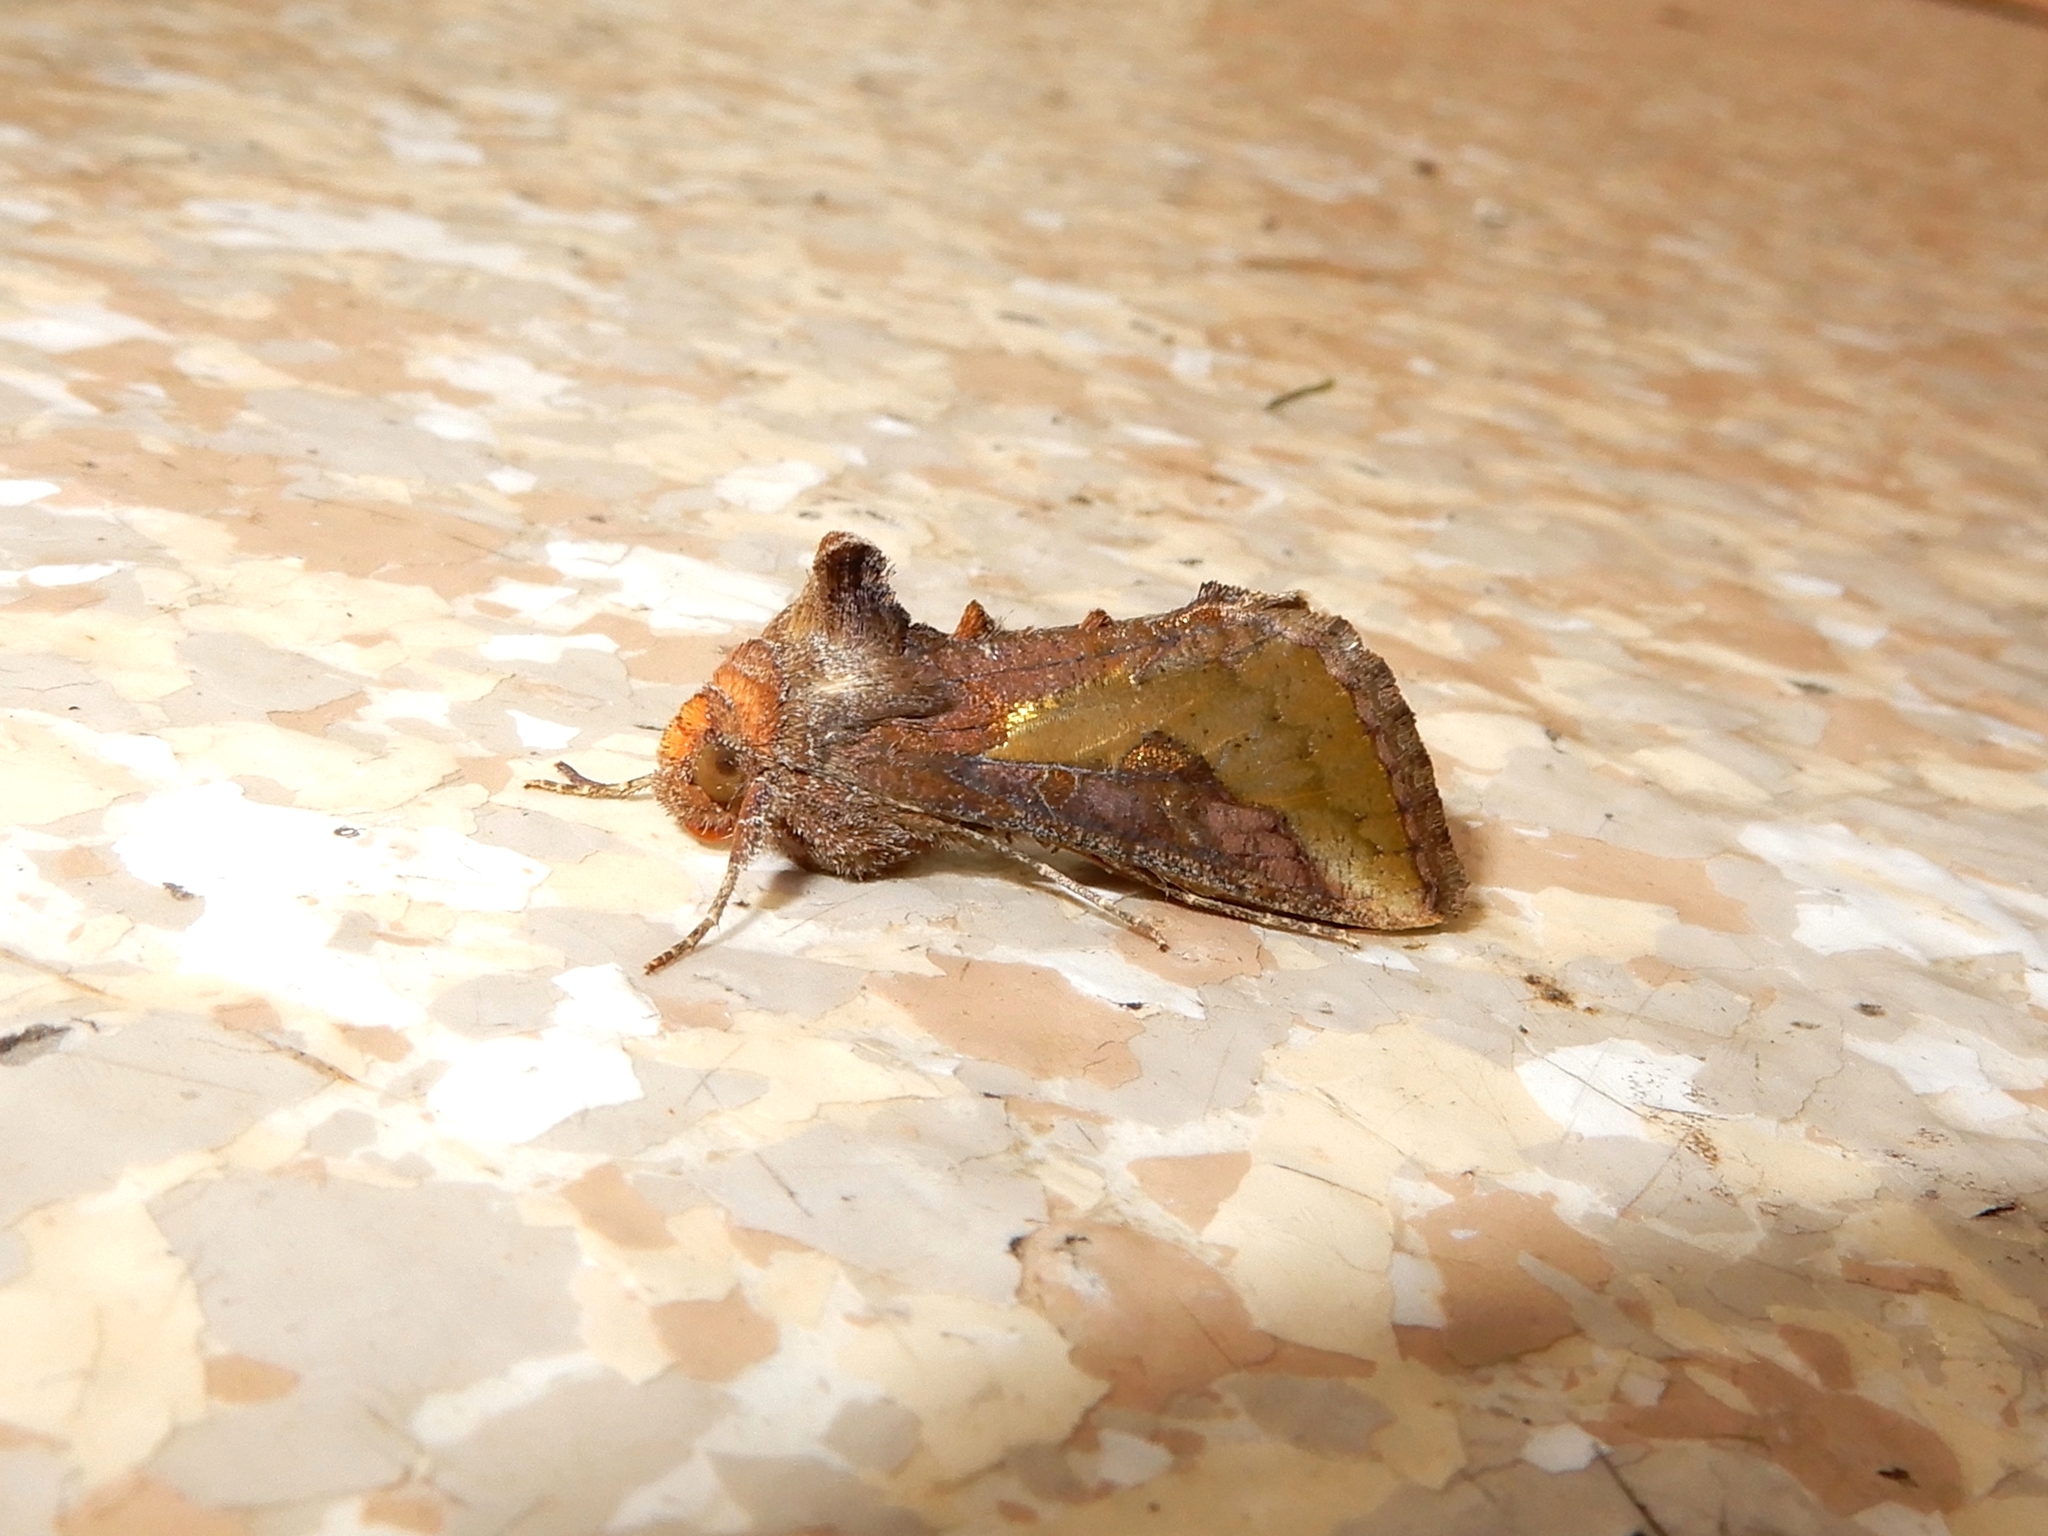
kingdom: Animalia
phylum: Arthropoda
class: Insecta
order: Lepidoptera
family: Noctuidae
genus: Thysanoplusia
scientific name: Thysanoplusia orichalcea
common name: Slender burnished brass, golden plusia
